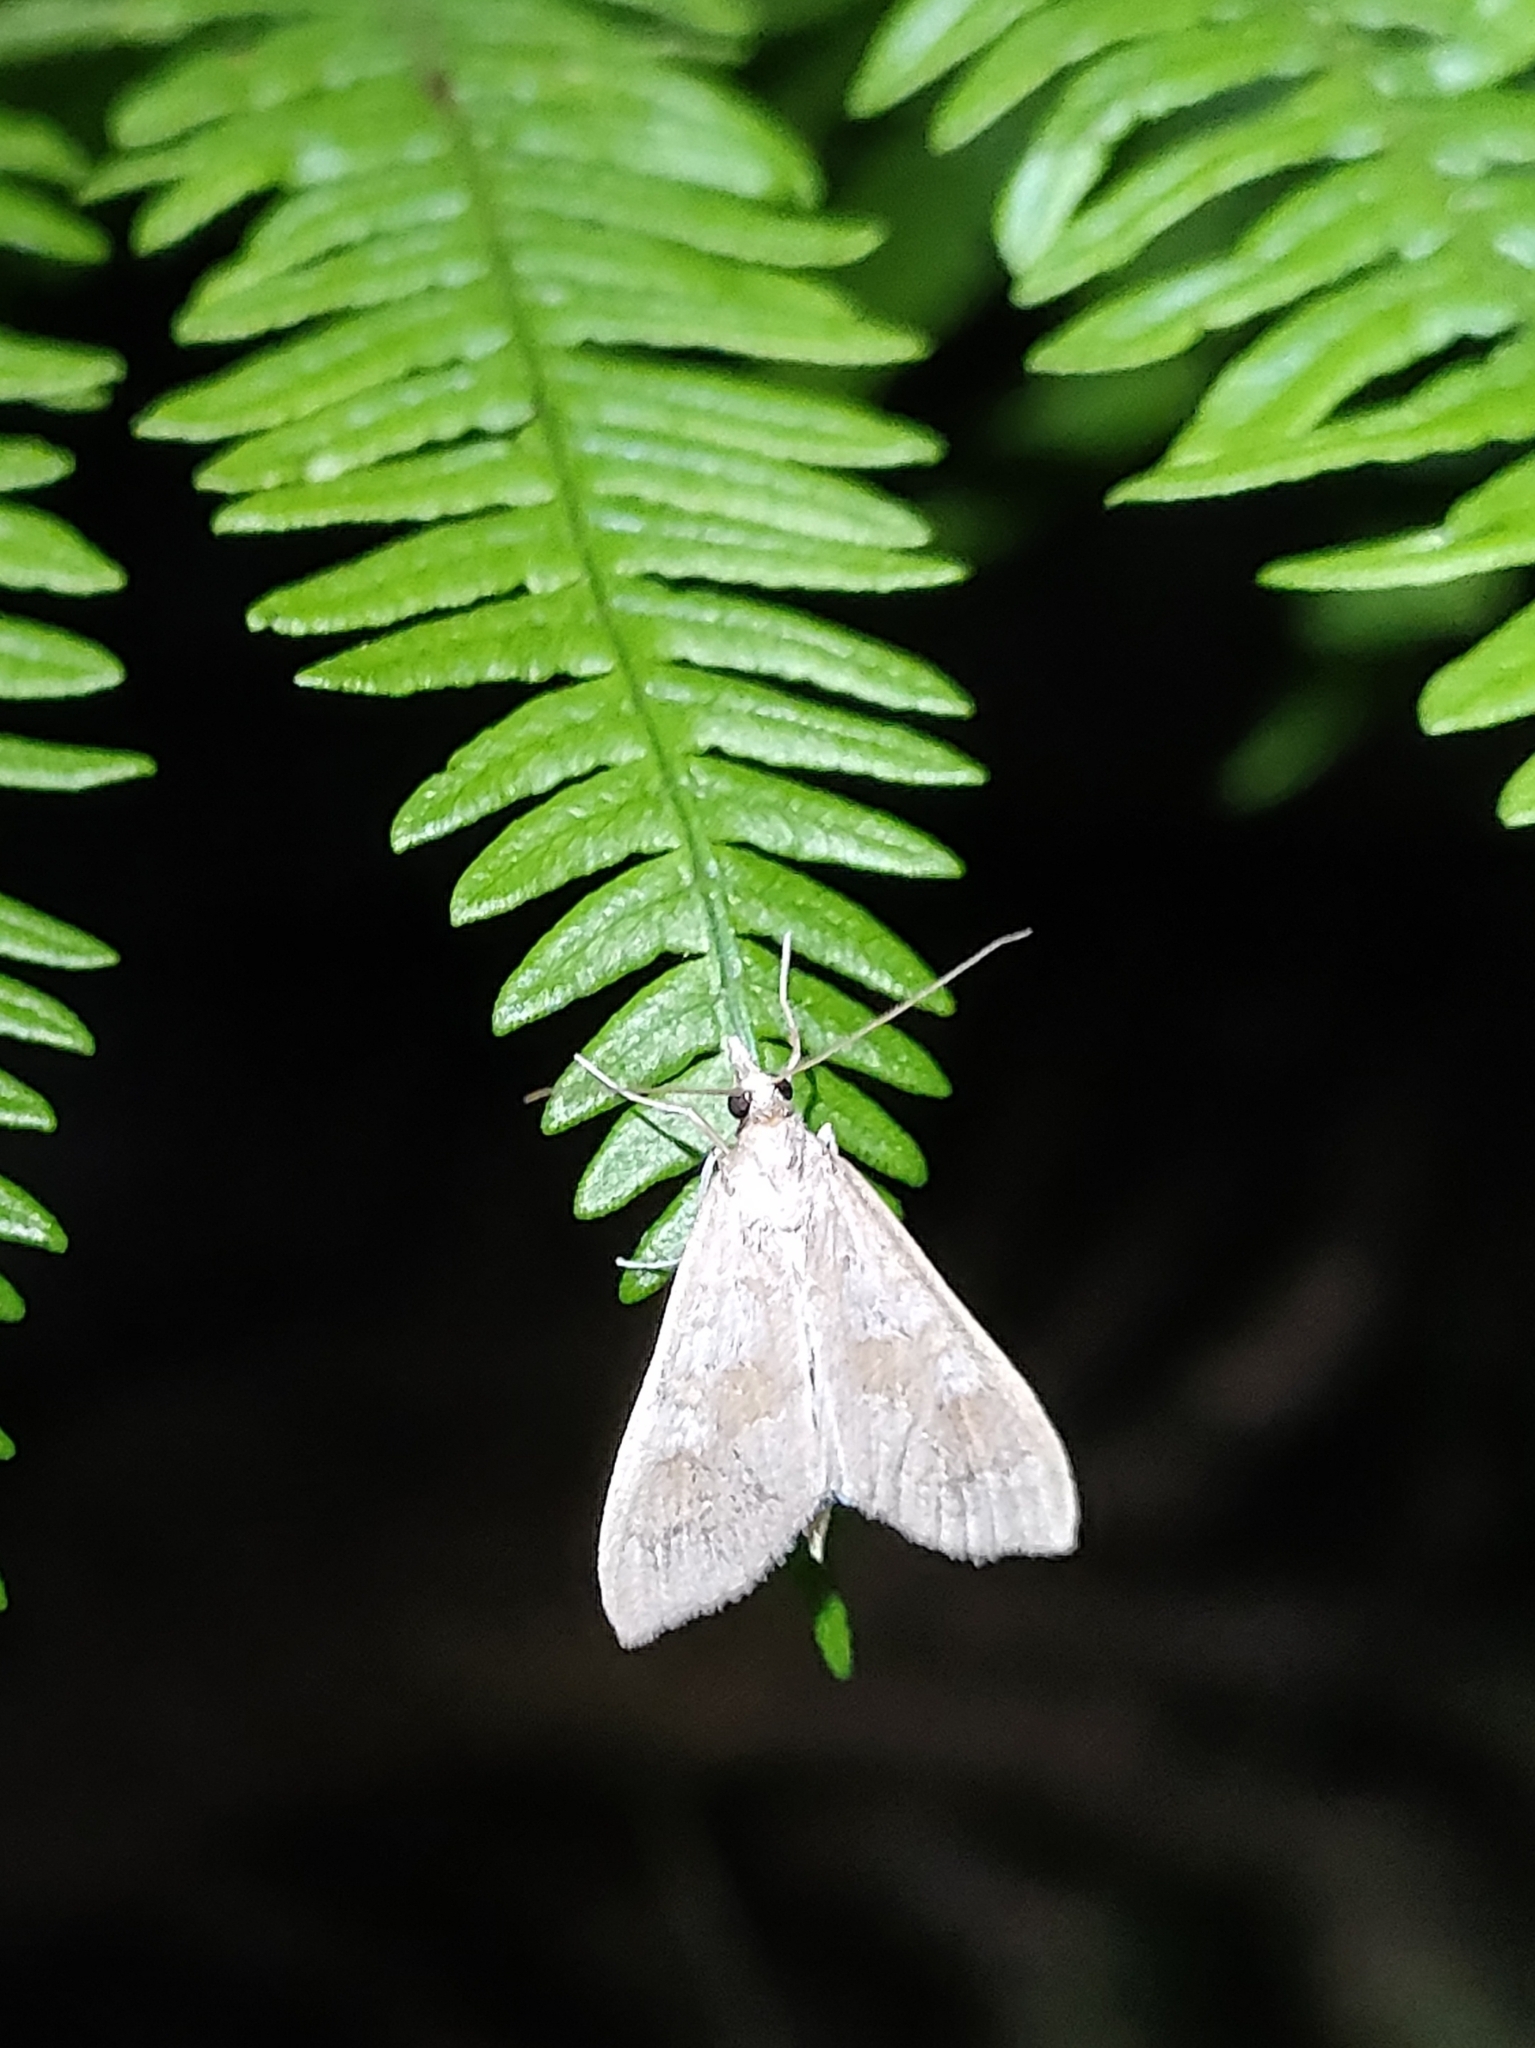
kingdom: Animalia
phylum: Arthropoda
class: Insecta
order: Lepidoptera
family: Crambidae
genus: Mecyna
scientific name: Mecyna asinalis
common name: Coastal pearl
